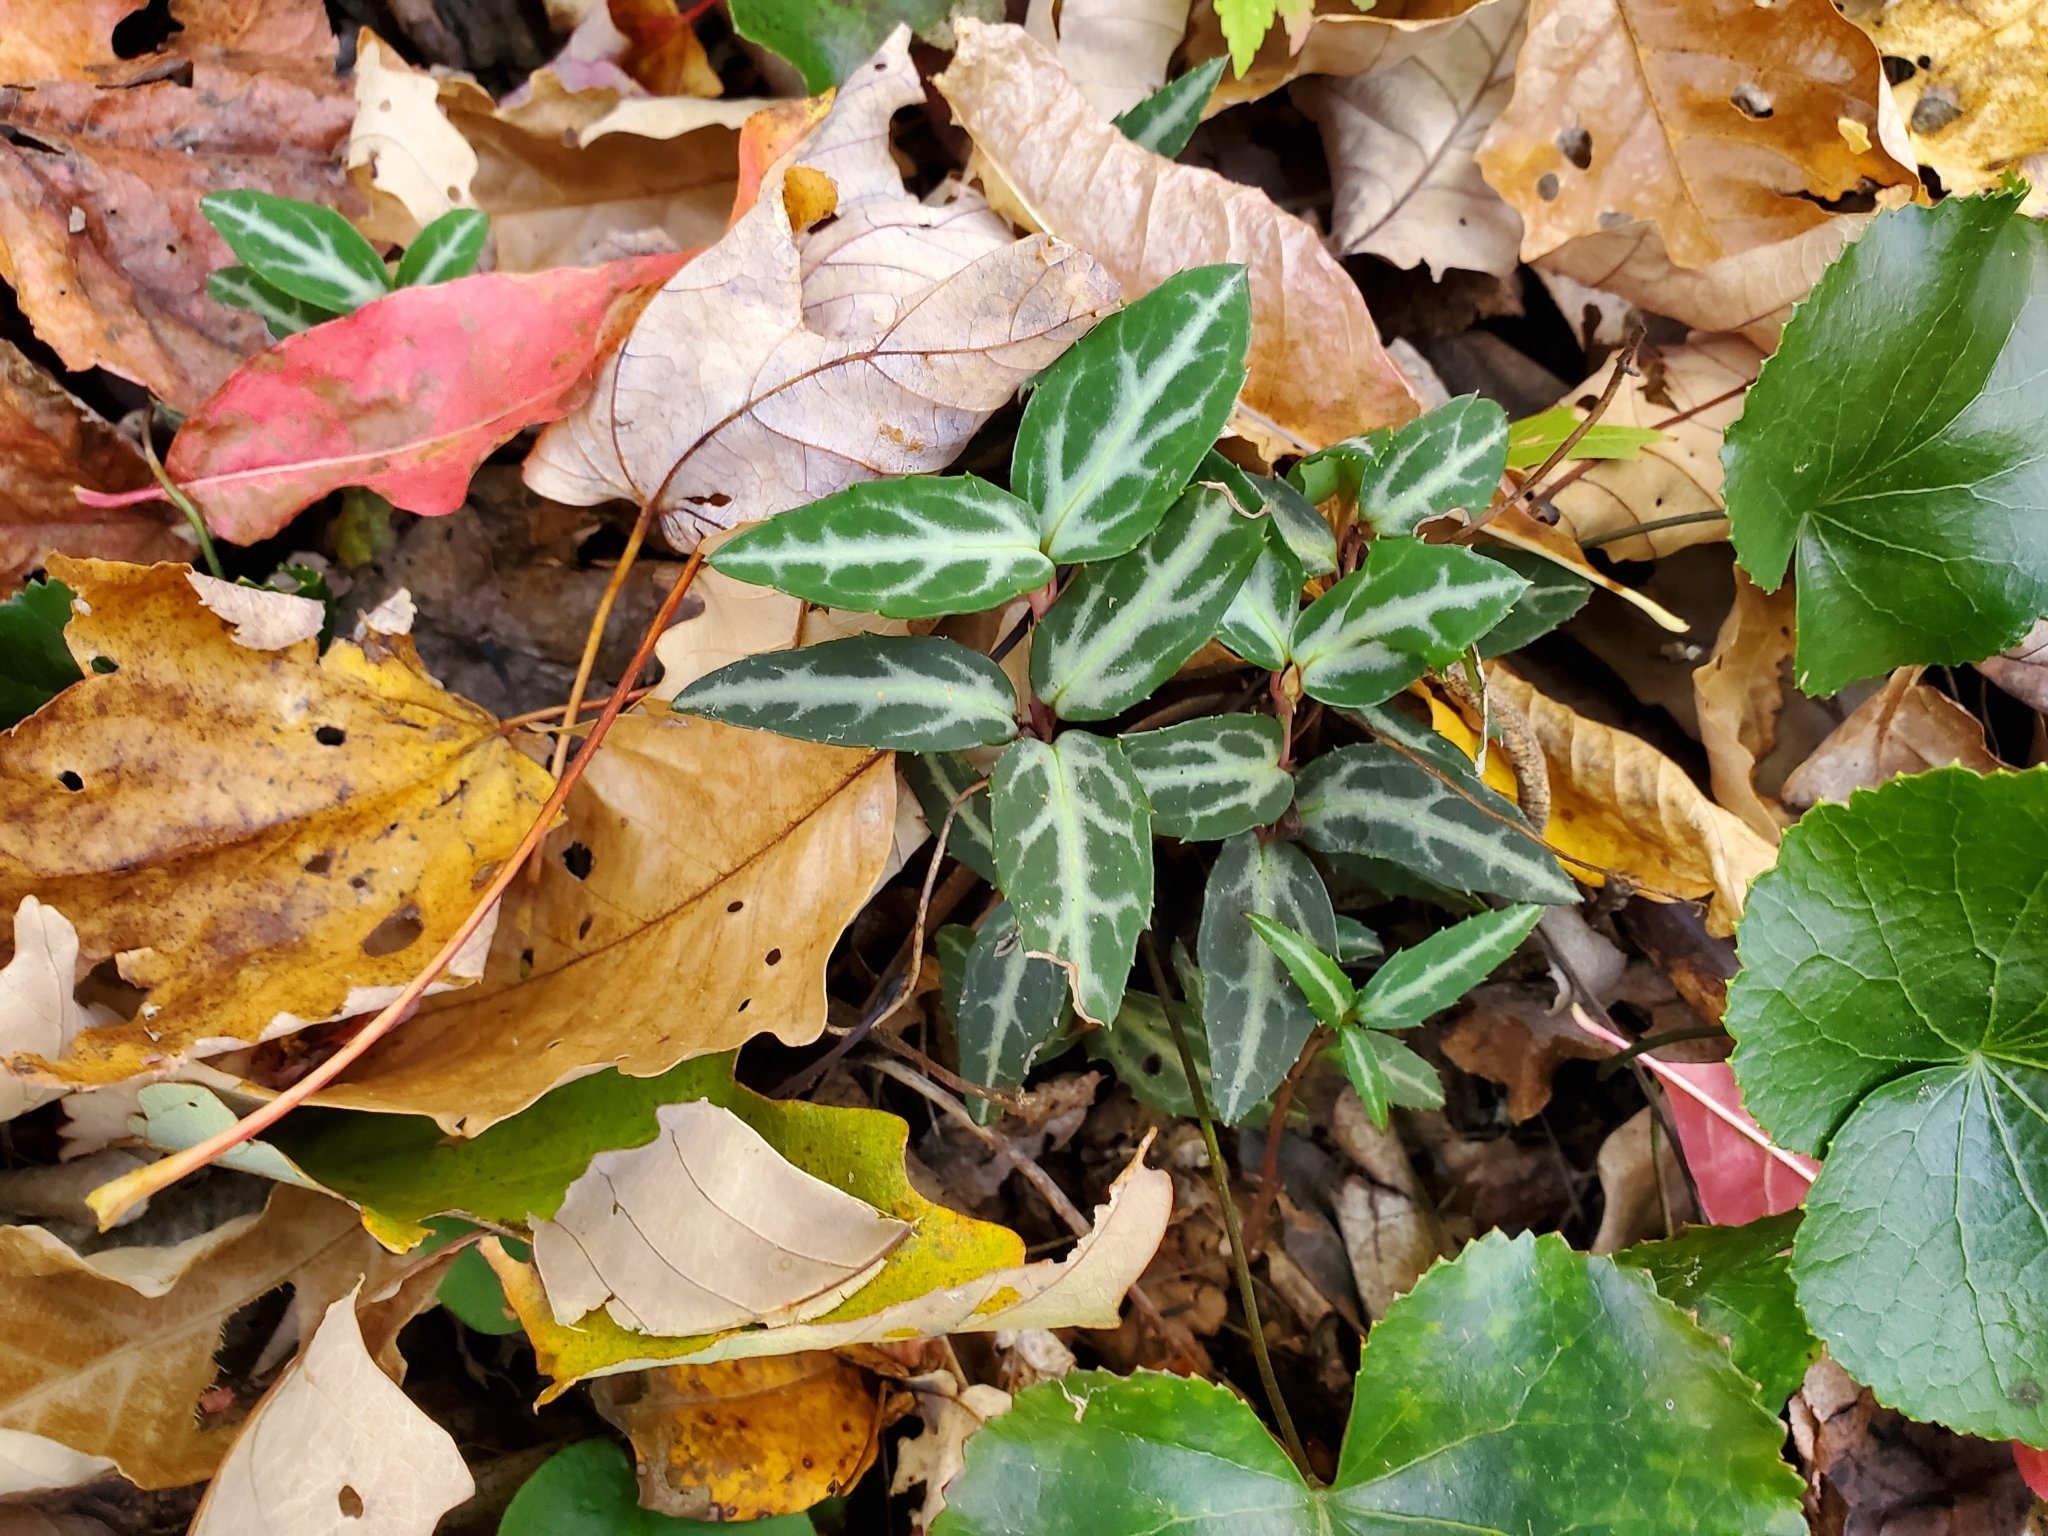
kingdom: Plantae
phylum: Tracheophyta
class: Magnoliopsida
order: Ericales
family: Ericaceae
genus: Chimaphila
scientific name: Chimaphila maculata
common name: Spotted pipsissewa
